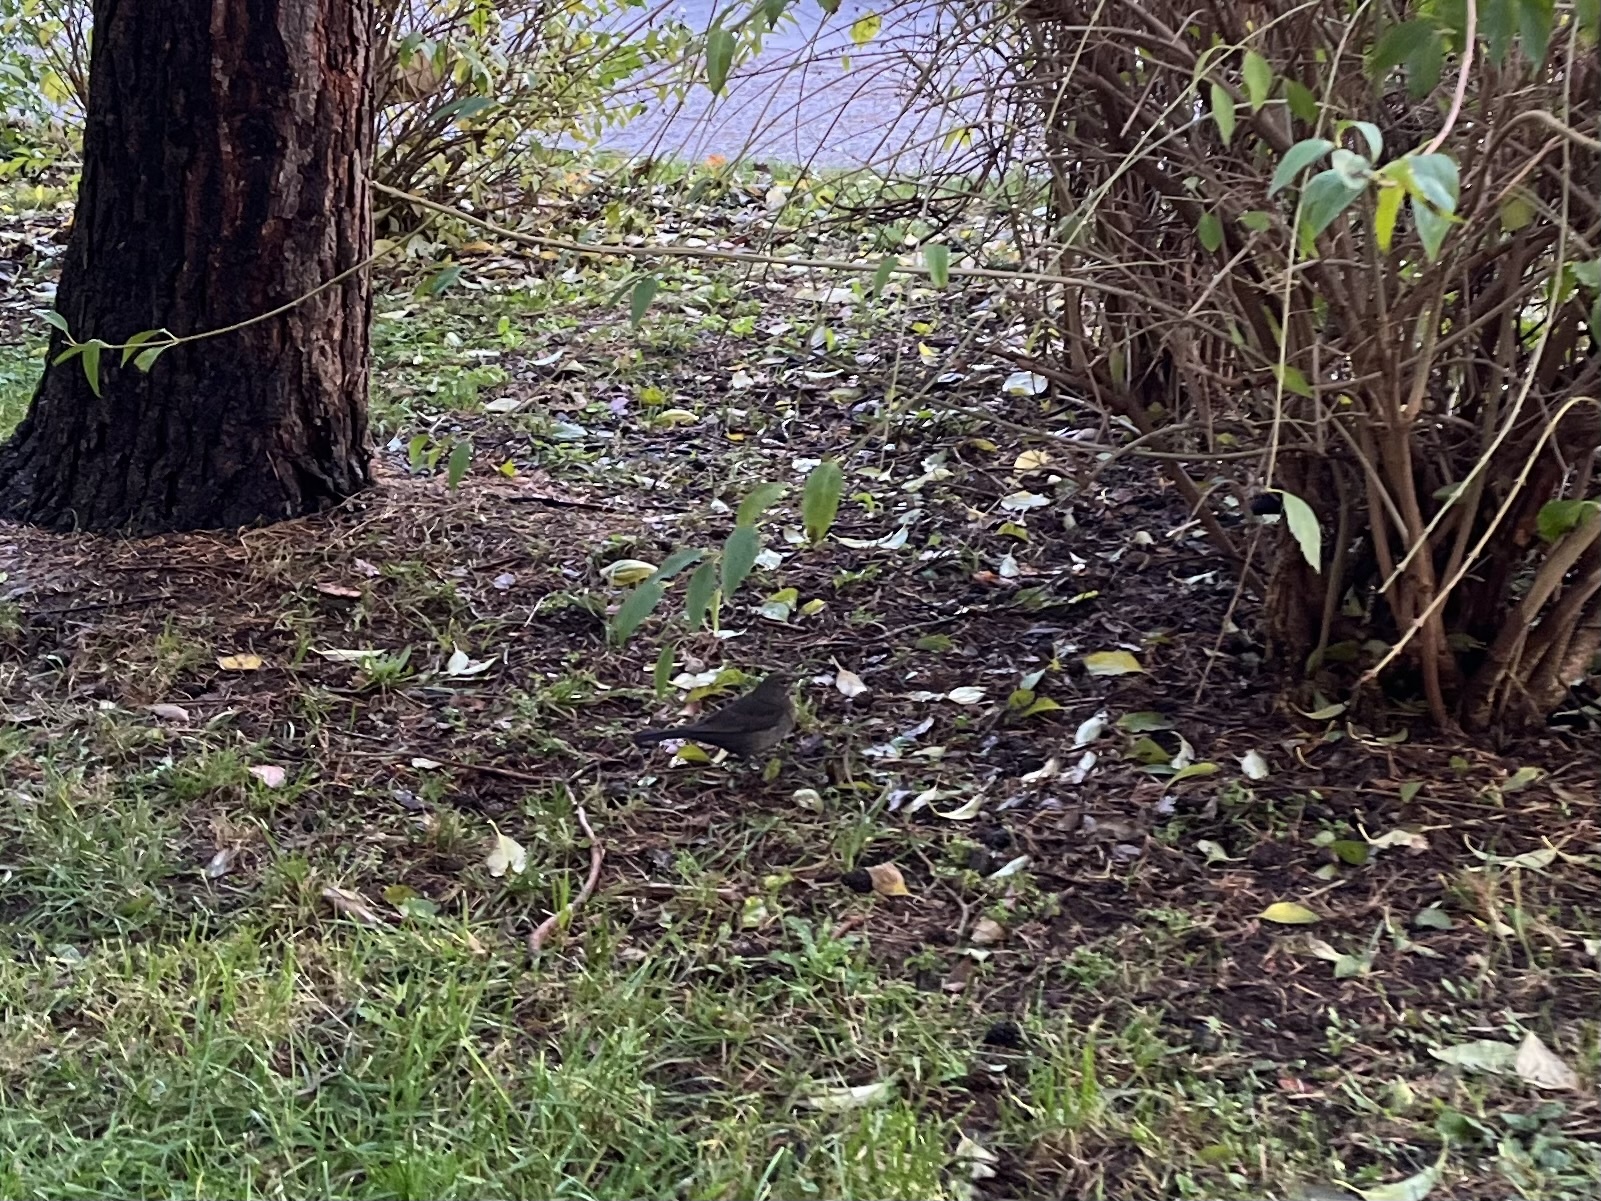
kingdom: Animalia
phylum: Chordata
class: Aves
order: Passeriformes
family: Turdidae
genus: Turdus
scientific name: Turdus merula
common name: Common blackbird
